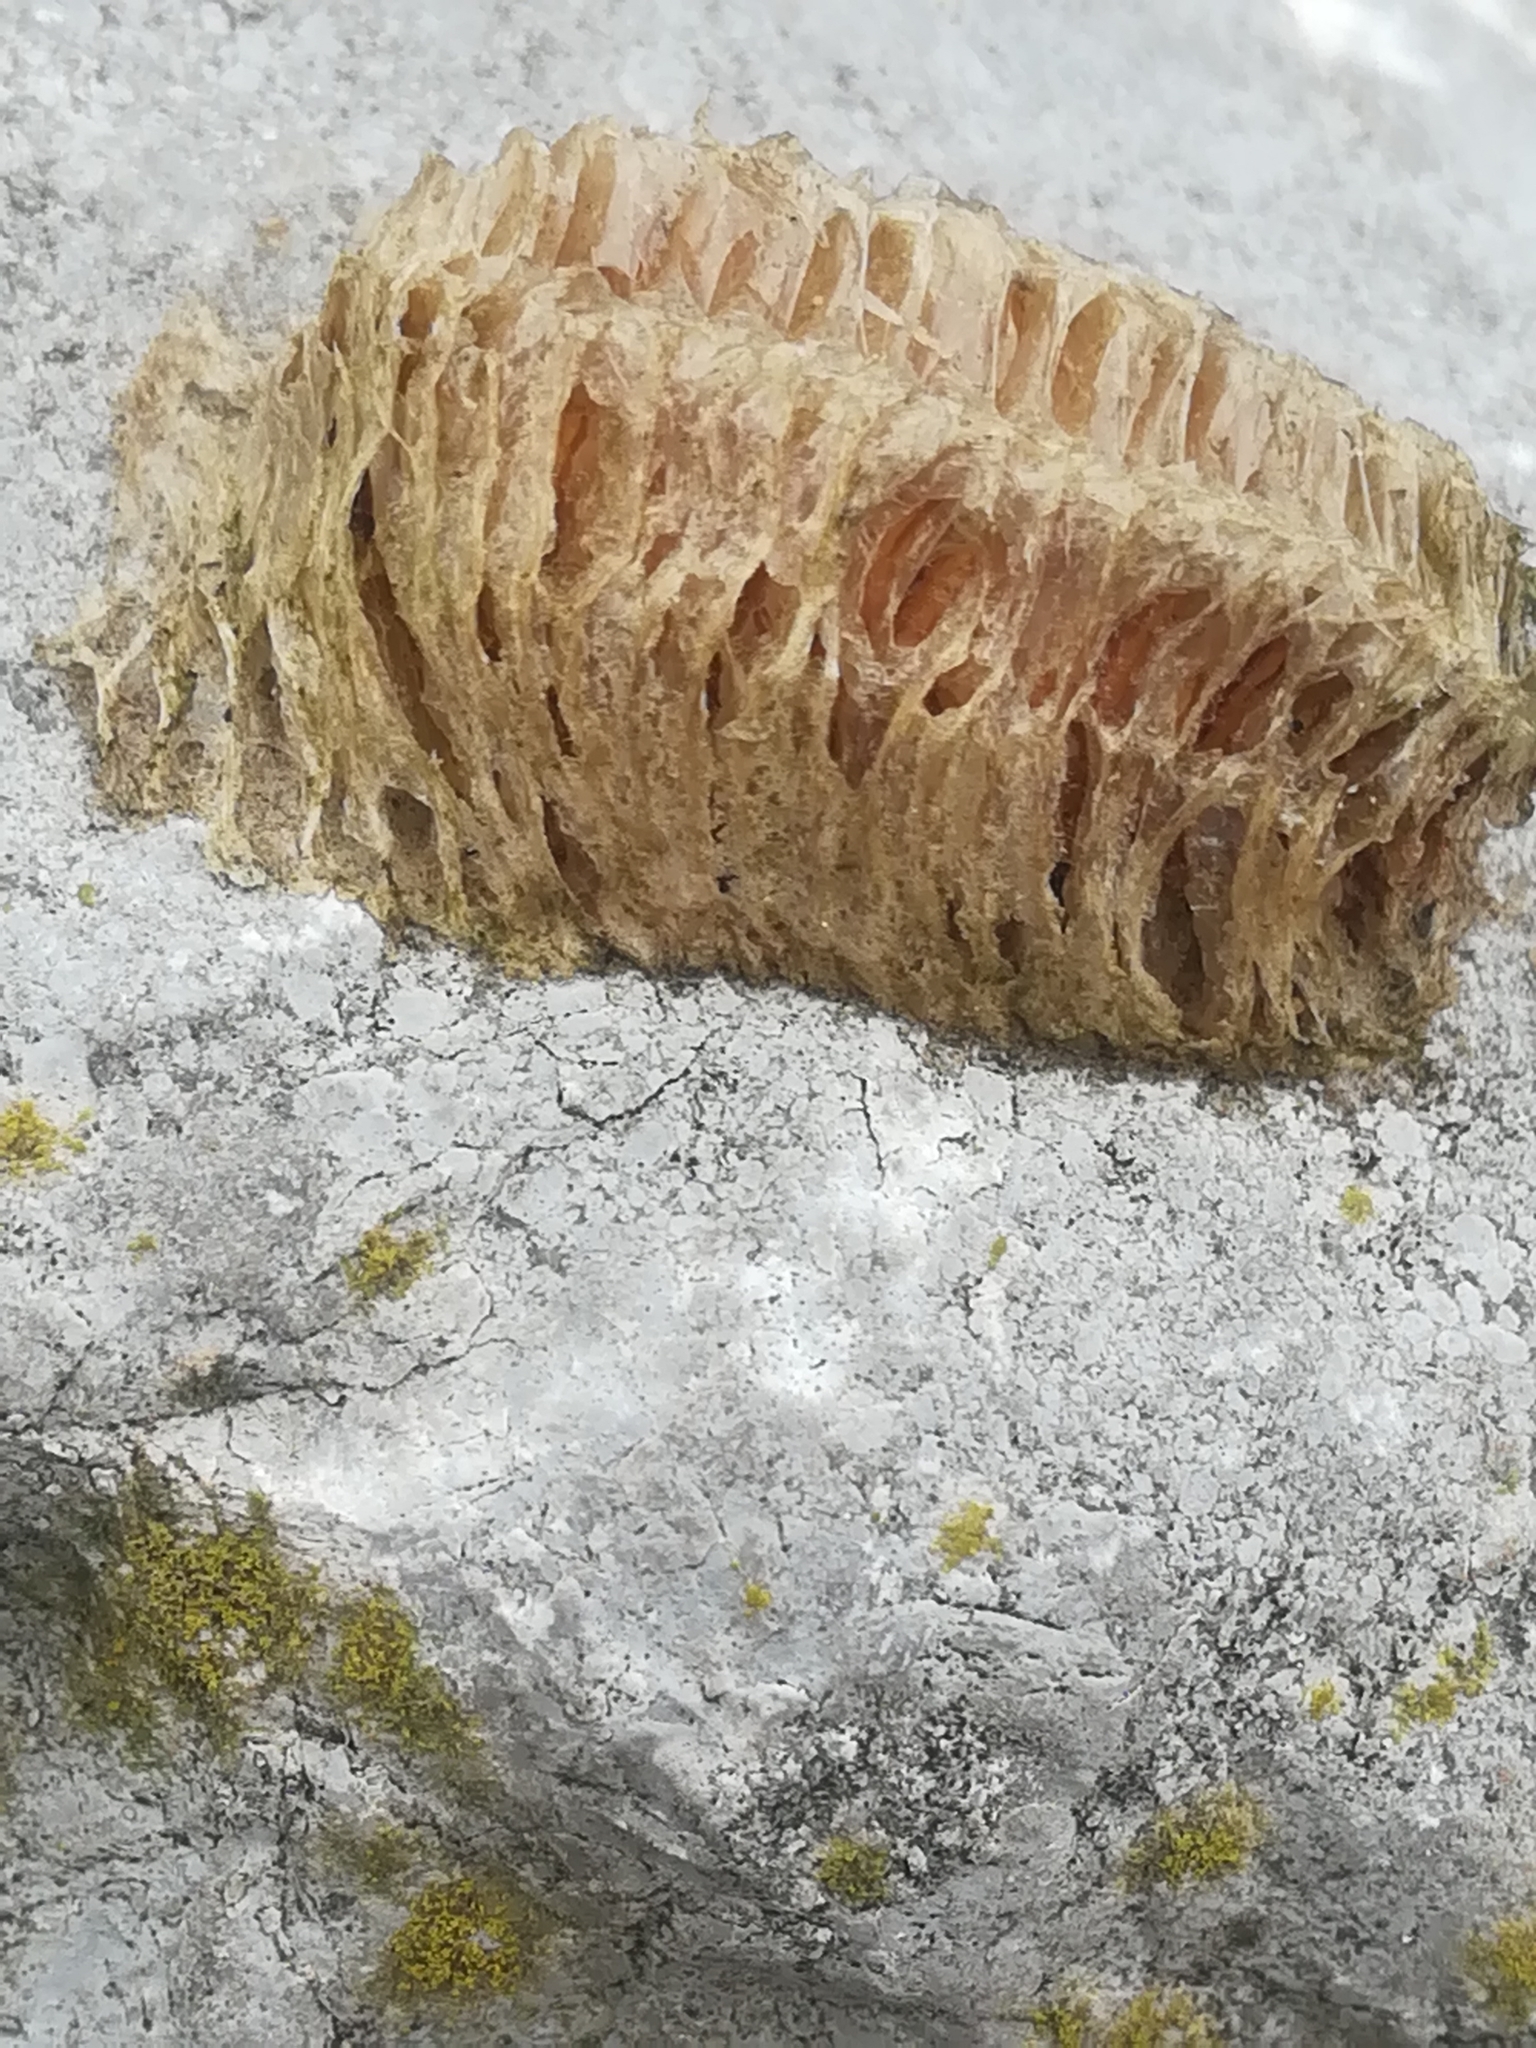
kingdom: Animalia
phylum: Arthropoda
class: Insecta
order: Mantodea
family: Mantidae
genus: Mantis
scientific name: Mantis religiosa
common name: Praying mantis
